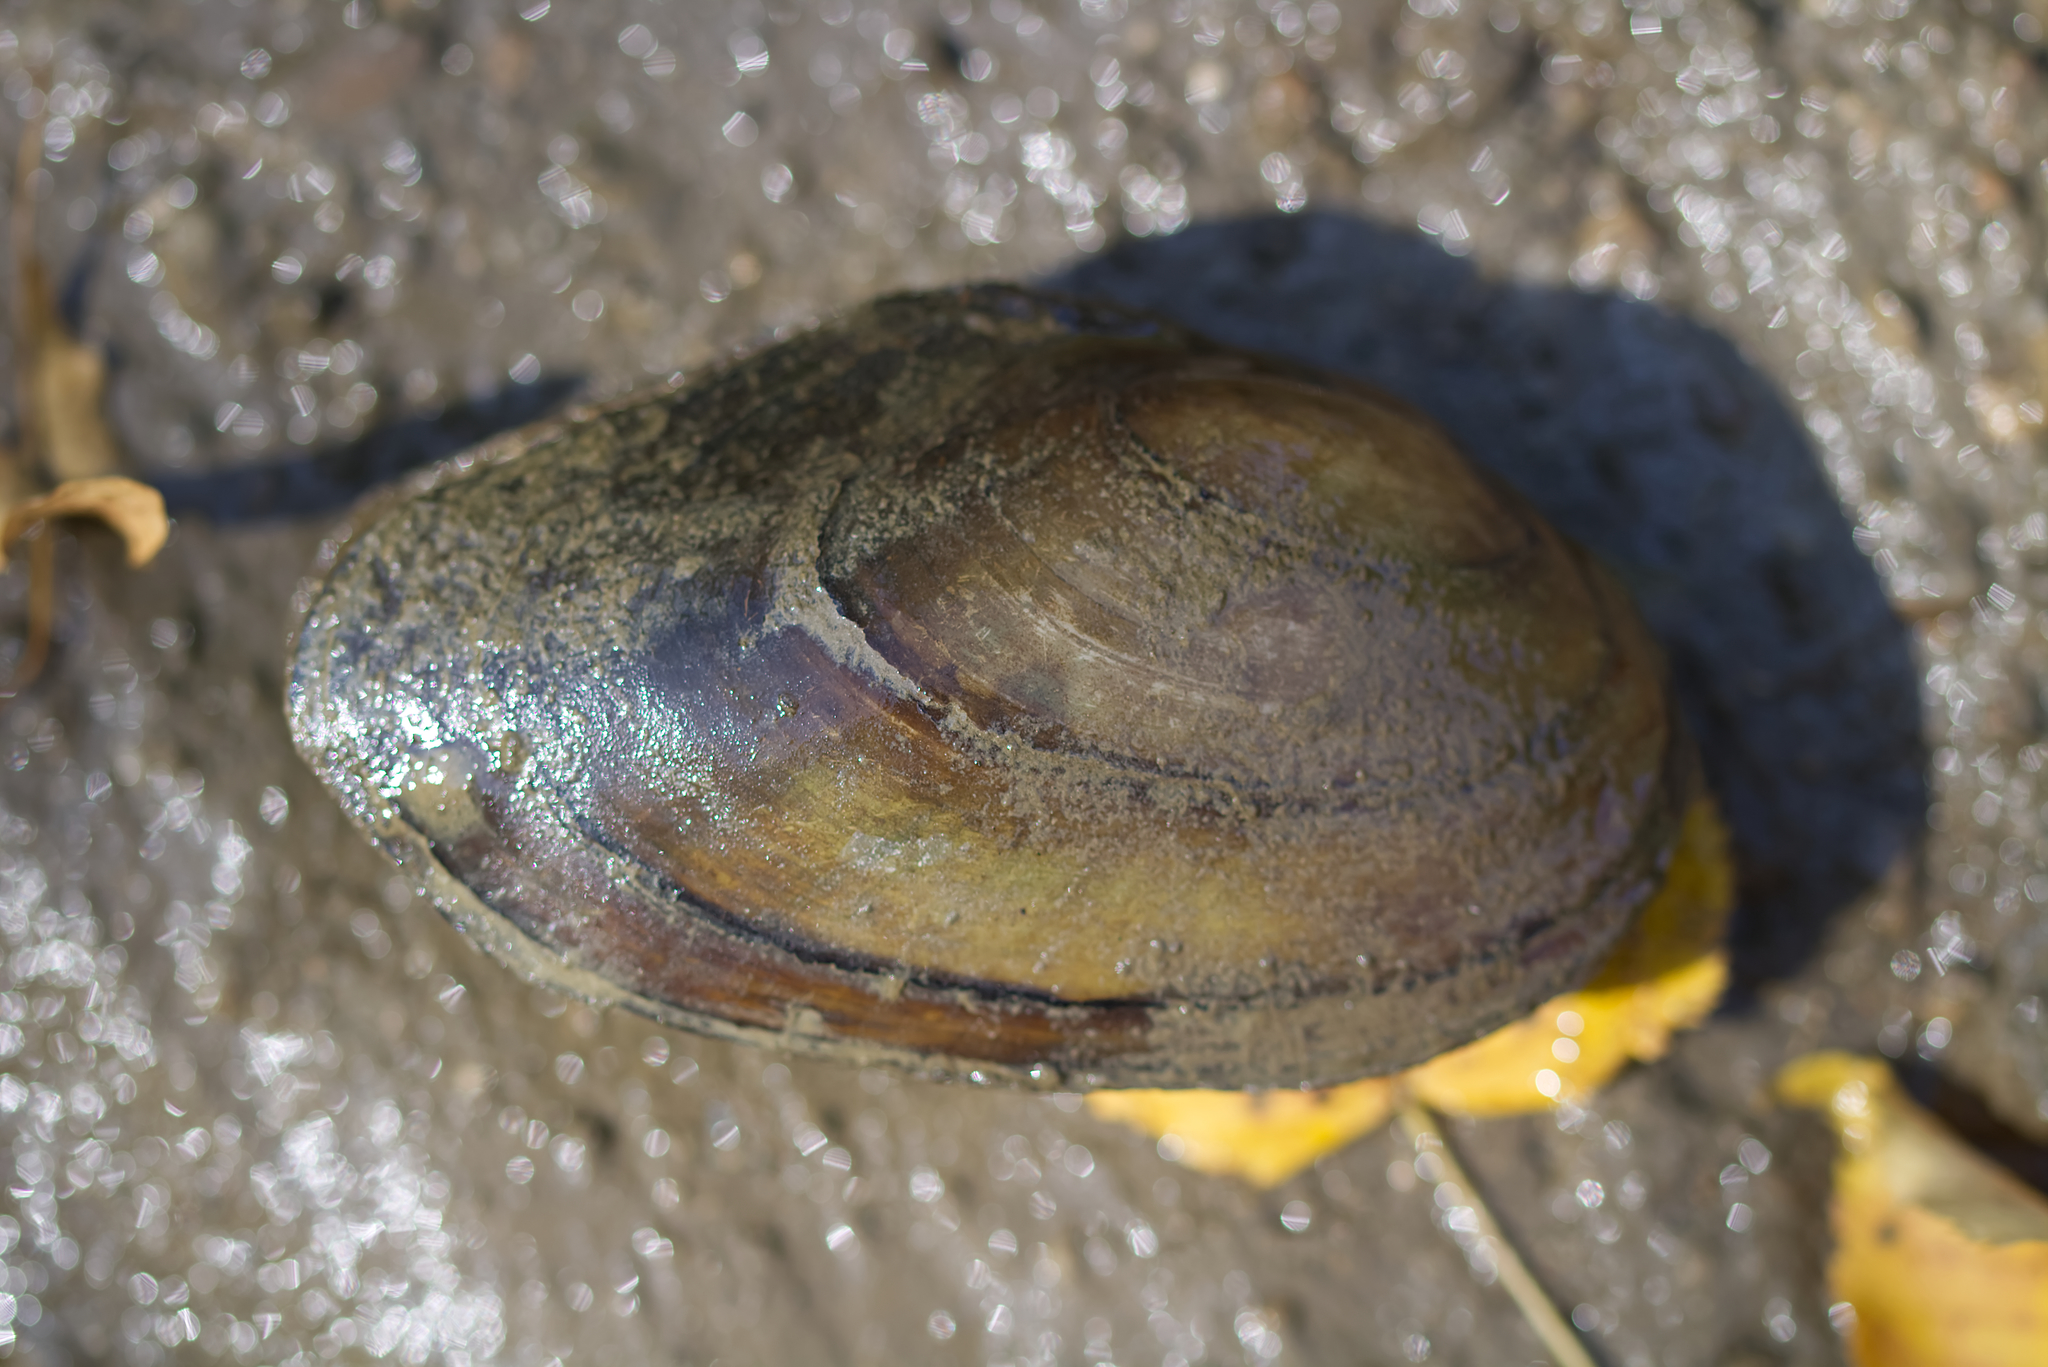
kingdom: Animalia
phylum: Mollusca
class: Bivalvia
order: Unionida
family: Unionidae
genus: Anodonta
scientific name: Anodonta anatina
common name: Duck mussel
